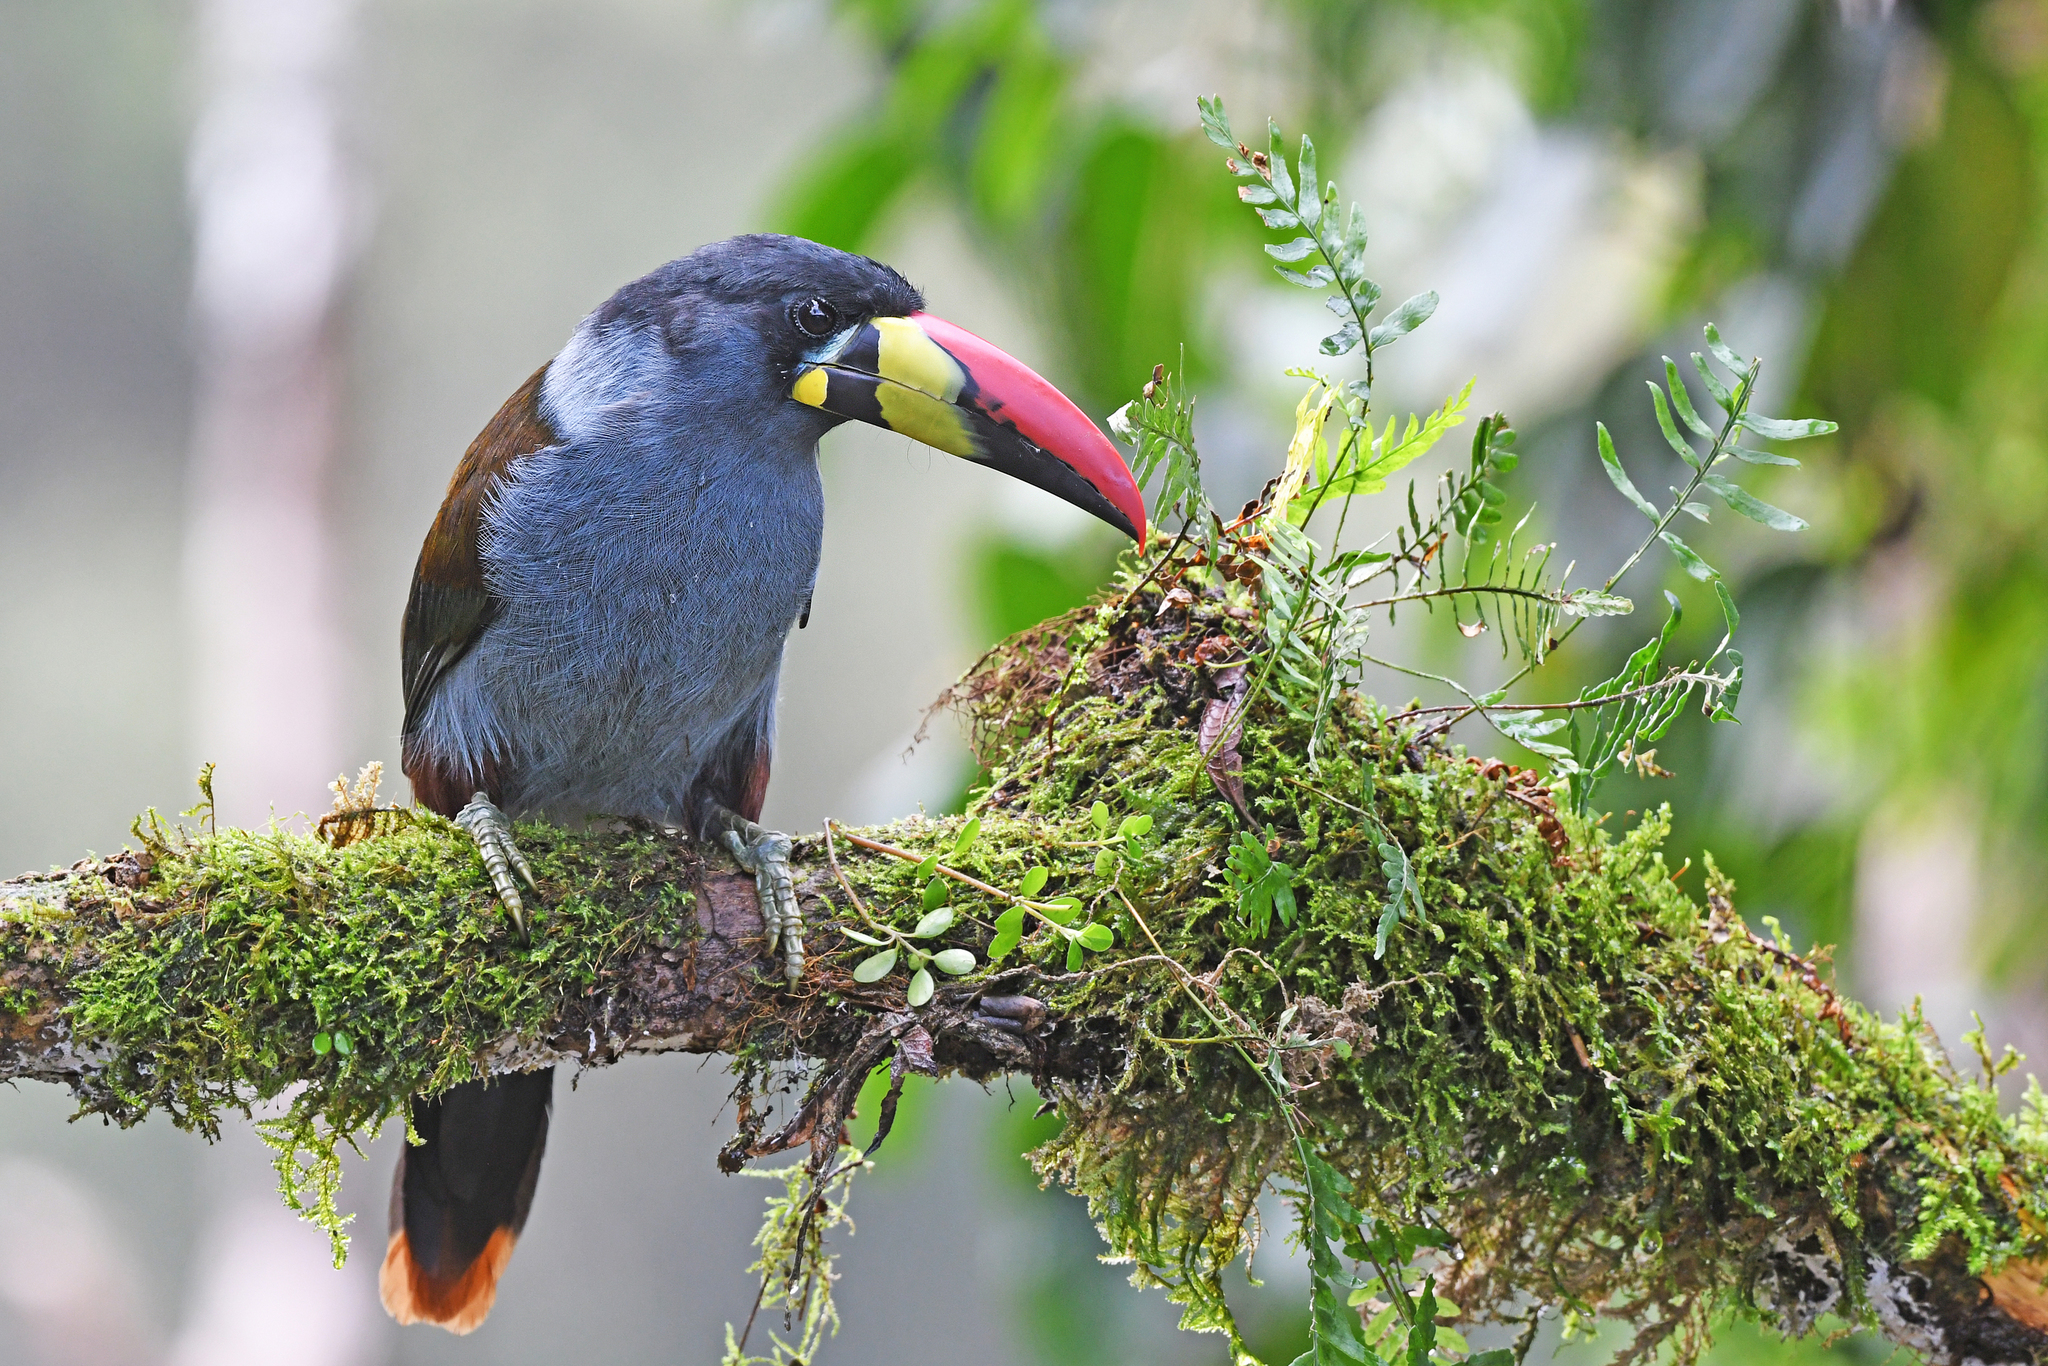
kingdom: Animalia
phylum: Chordata
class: Aves
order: Piciformes
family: Ramphastidae
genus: Andigena
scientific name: Andigena hypoglauca
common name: Grey-breasted mountain toucan
